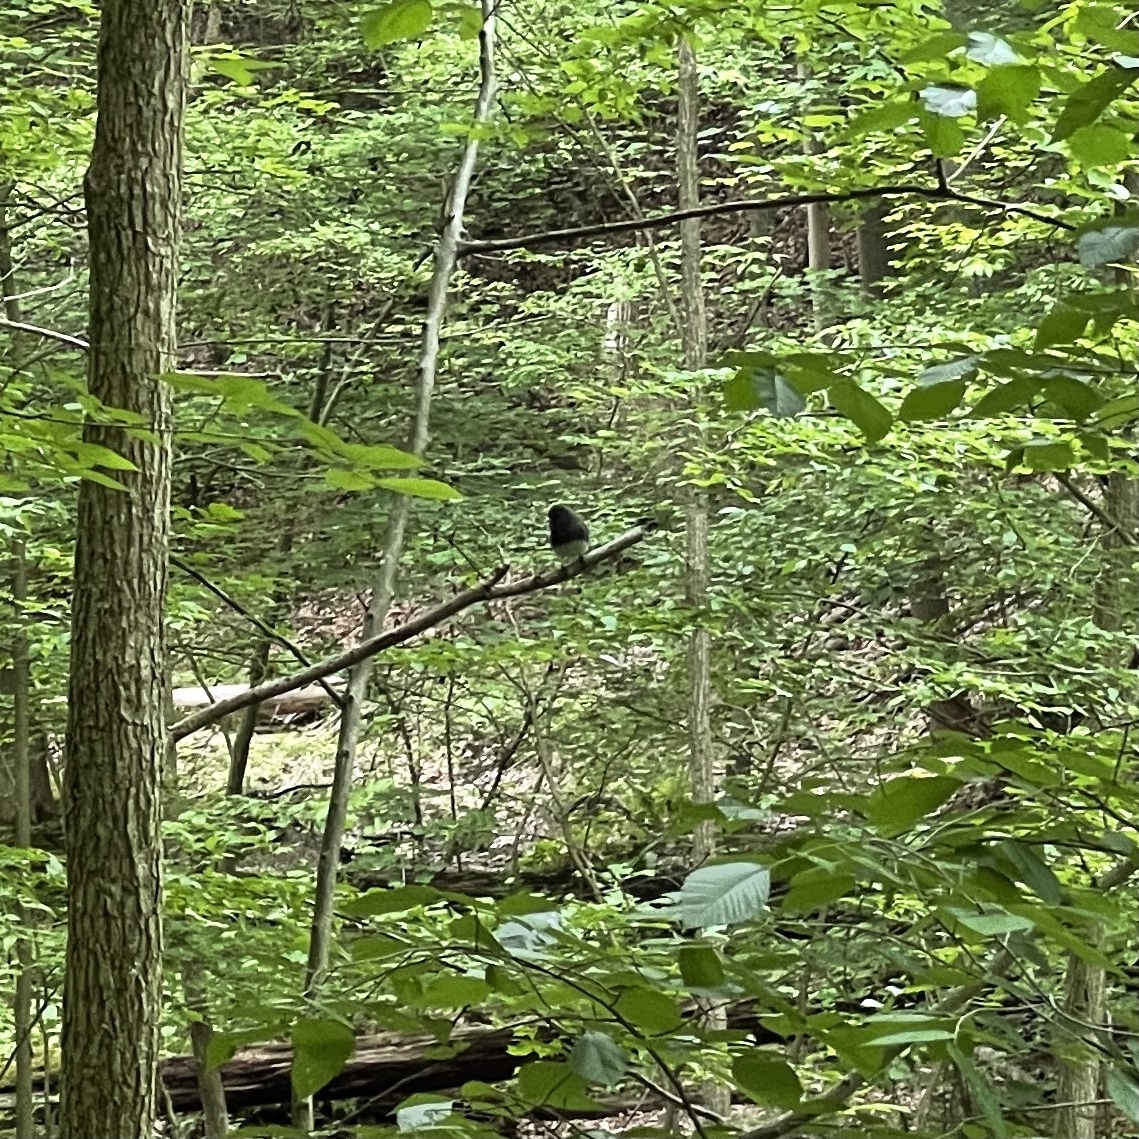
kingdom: Animalia
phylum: Chordata
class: Aves
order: Passeriformes
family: Passerellidae
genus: Junco
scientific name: Junco hyemalis
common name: Dark-eyed junco
